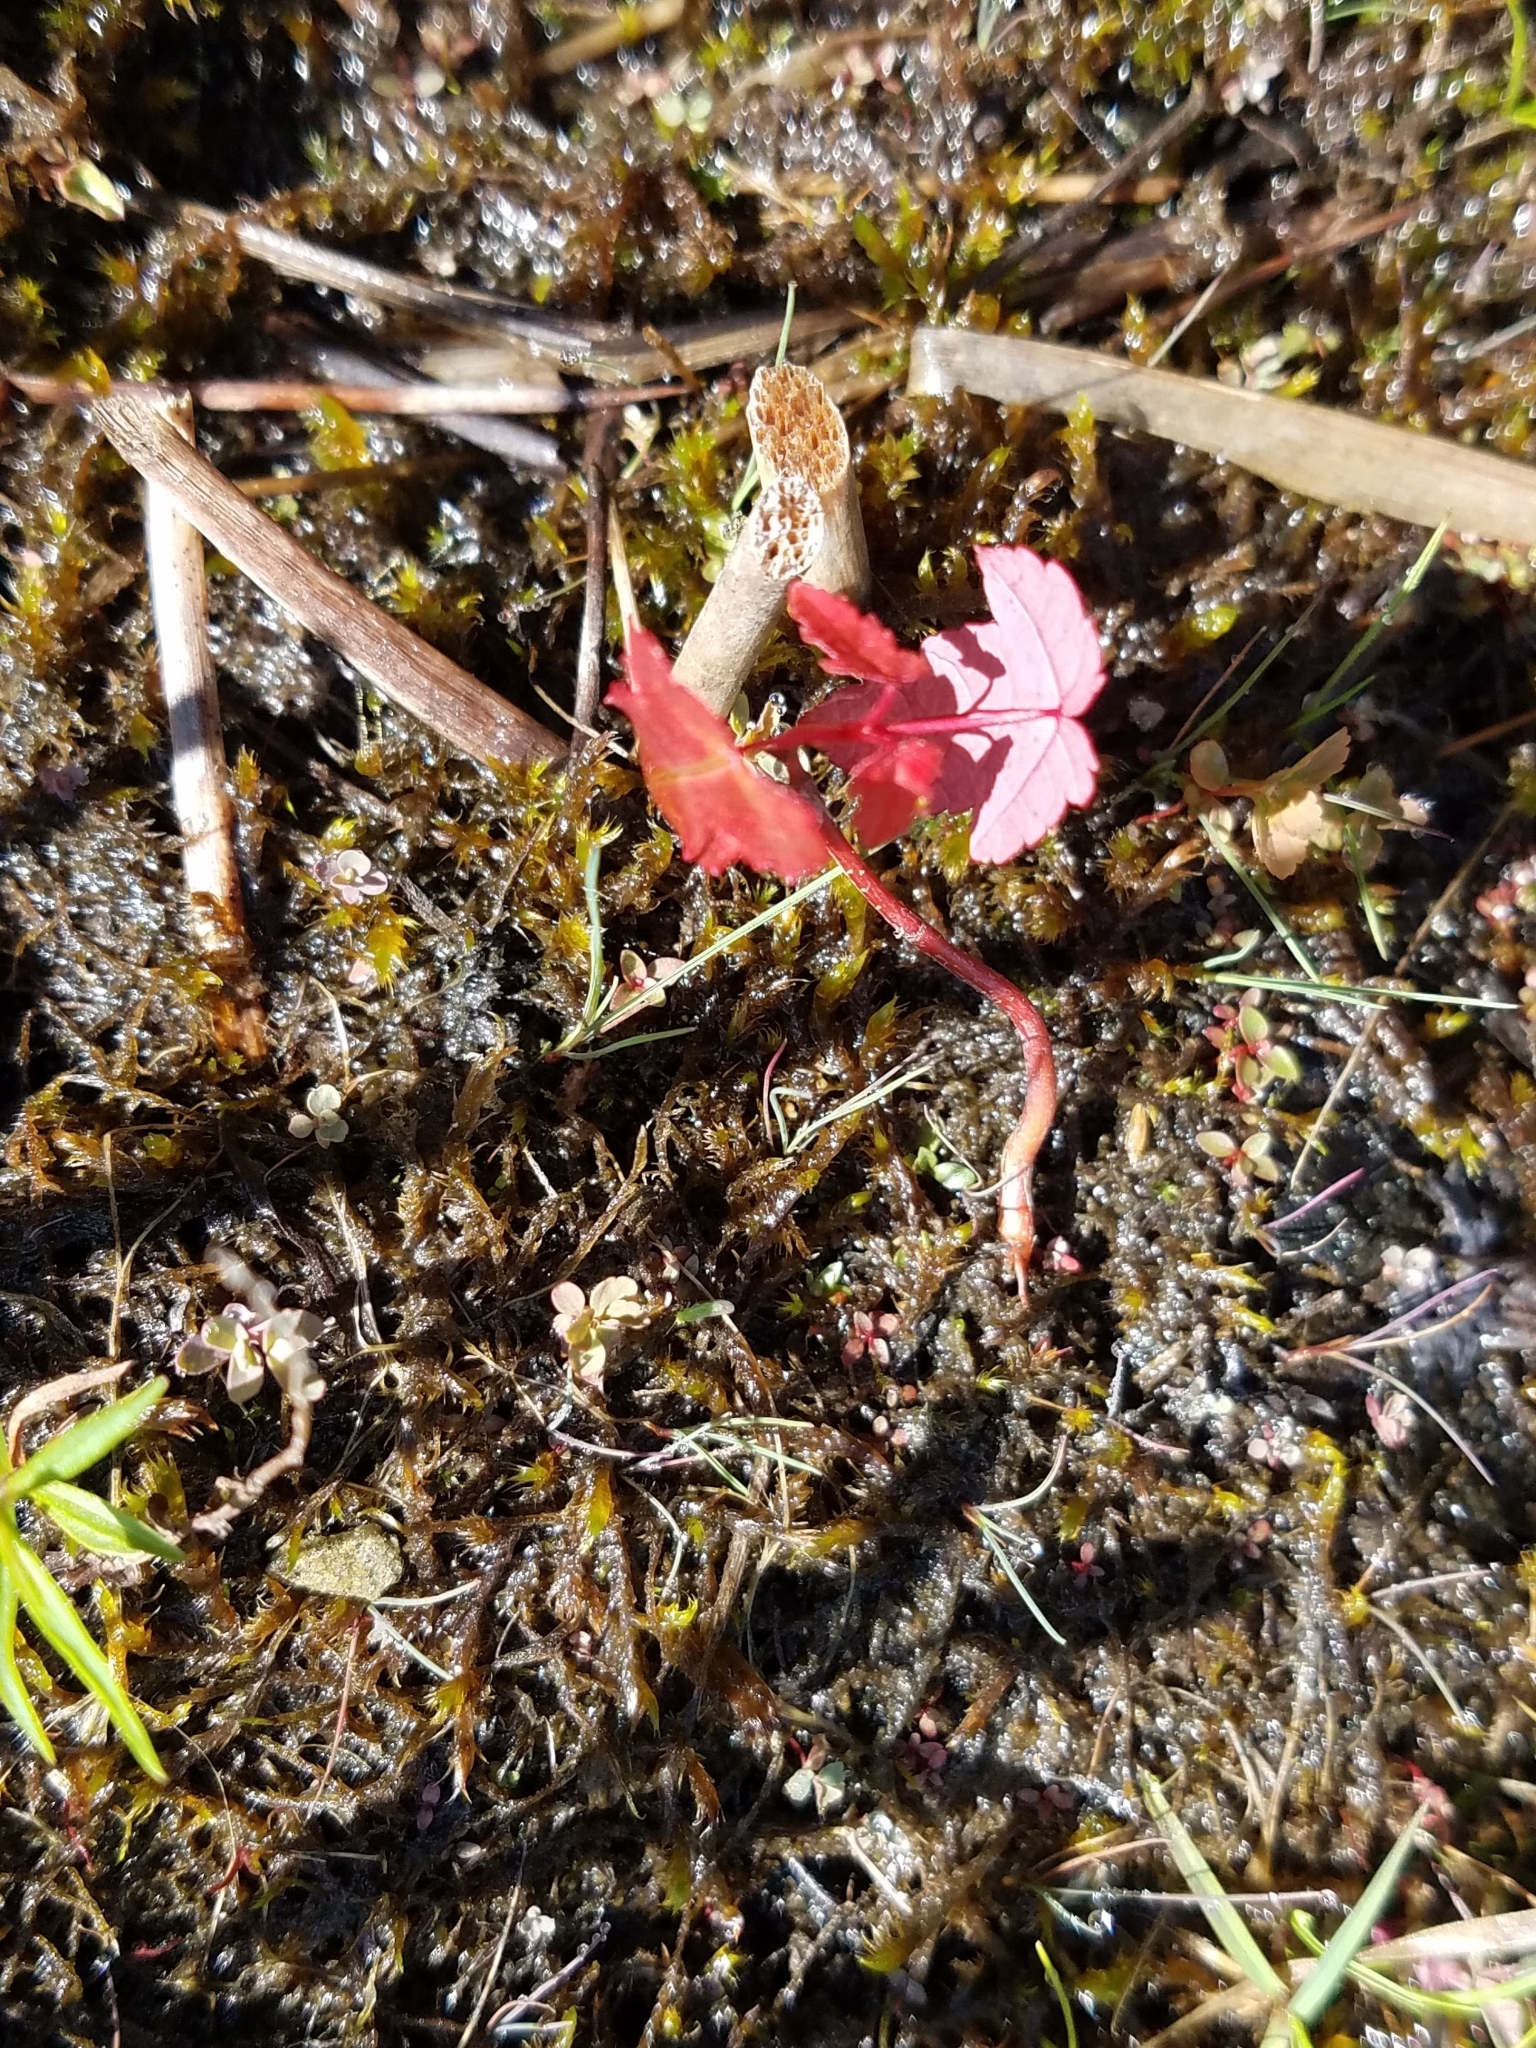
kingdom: Plantae
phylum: Tracheophyta
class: Magnoliopsida
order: Sapindales
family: Sapindaceae
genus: Acer
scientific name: Acer rubrum
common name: Red maple
